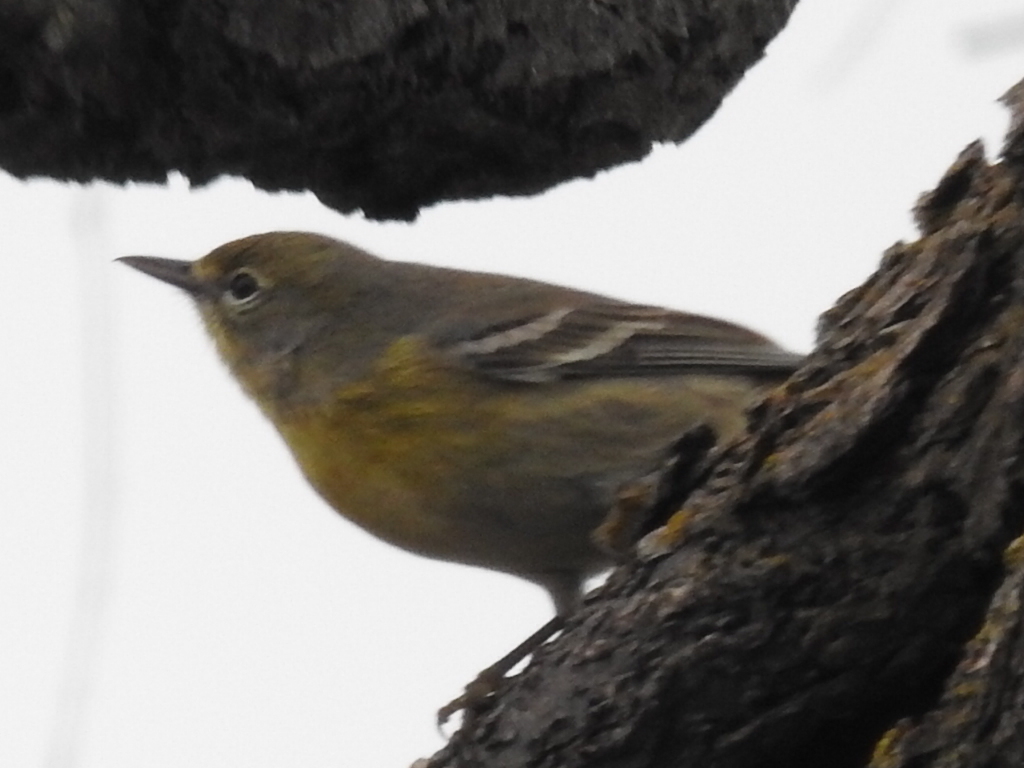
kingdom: Animalia
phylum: Chordata
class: Aves
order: Passeriformes
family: Parulidae
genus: Setophaga
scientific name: Setophaga pinus
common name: Pine warbler
